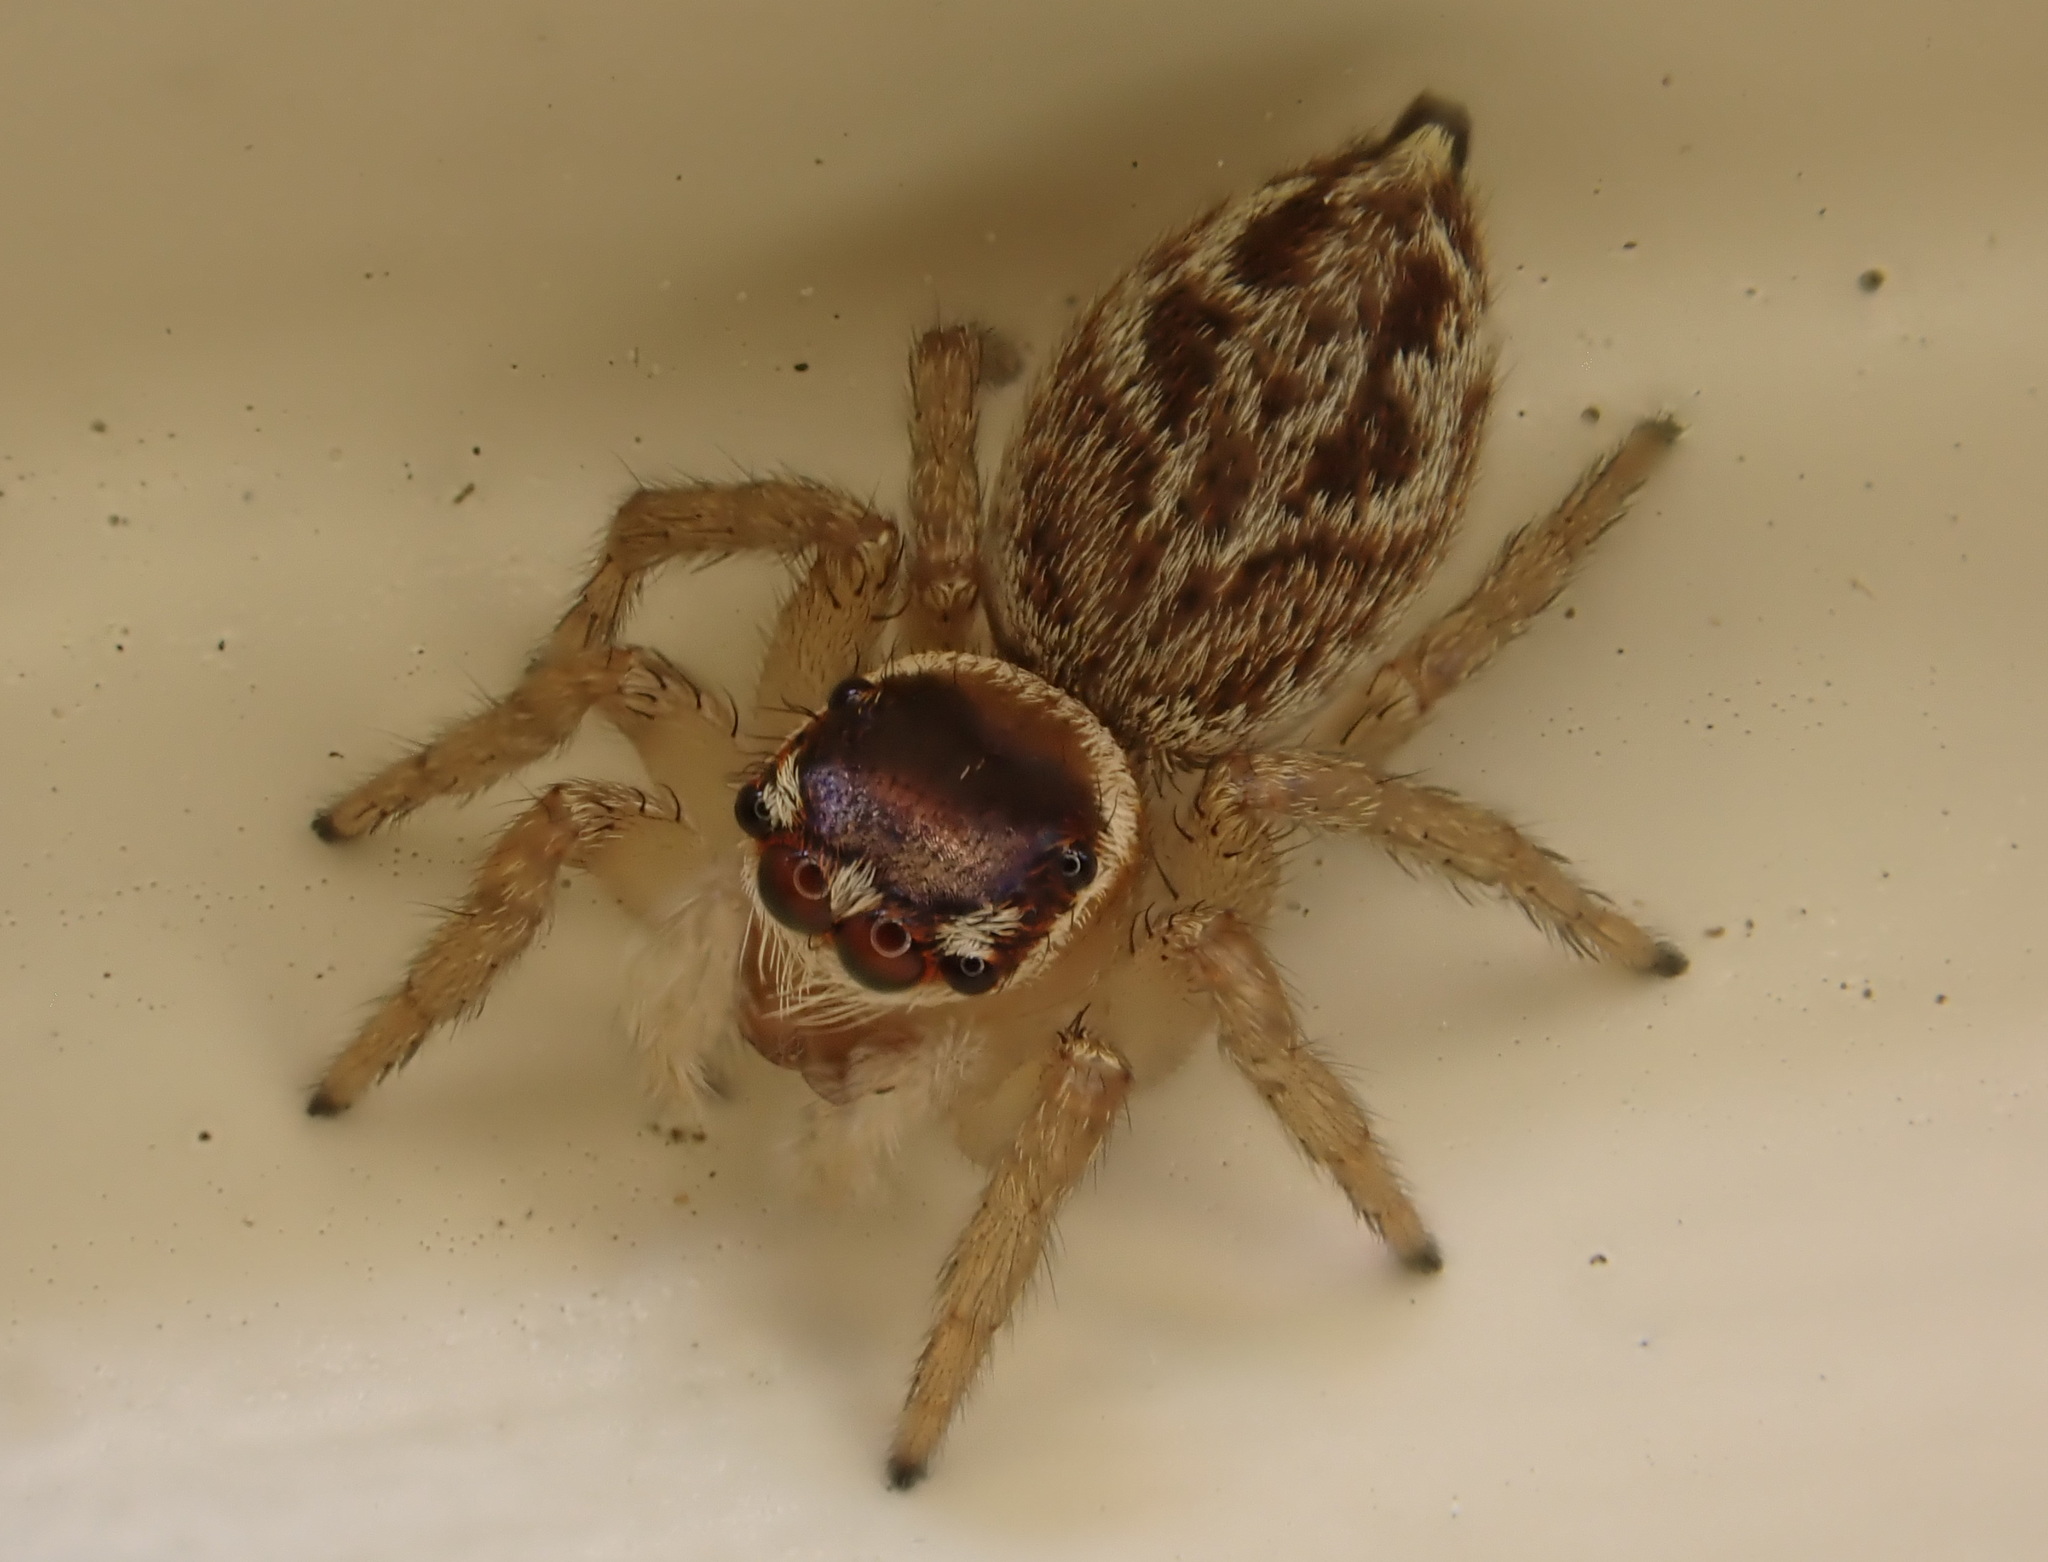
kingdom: Animalia
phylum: Arthropoda
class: Arachnida
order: Araneae
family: Salticidae
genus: Maratus
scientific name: Maratus griseus
